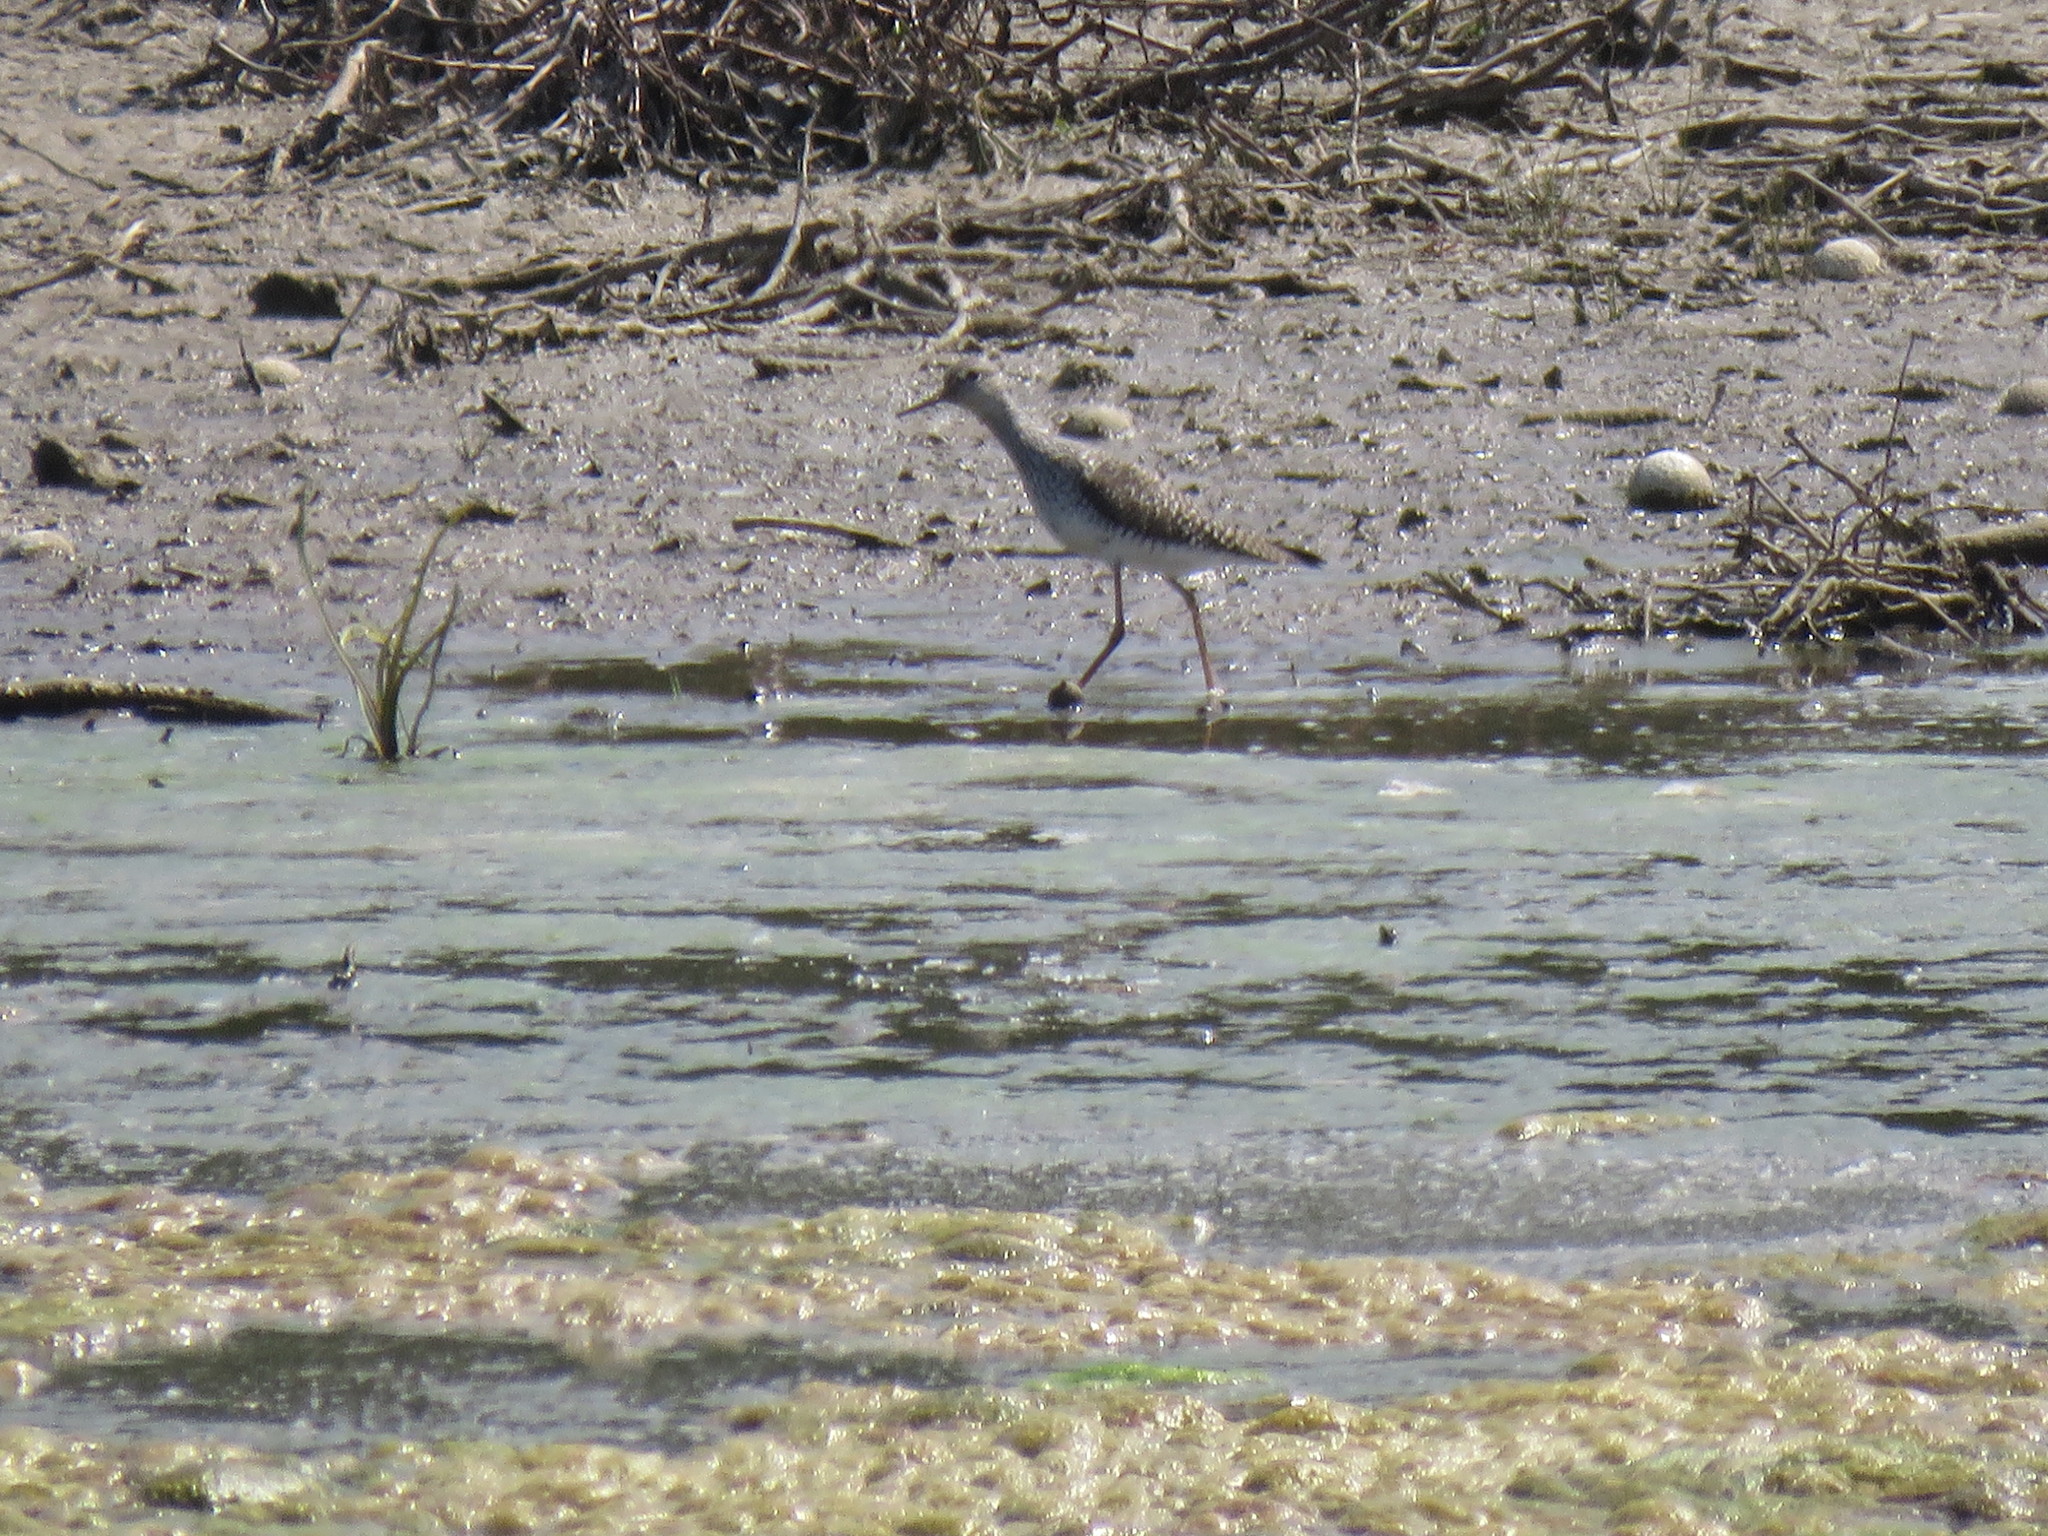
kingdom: Animalia
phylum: Chordata
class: Aves
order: Charadriiformes
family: Scolopacidae
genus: Tringa
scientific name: Tringa flavipes
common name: Lesser yellowlegs
